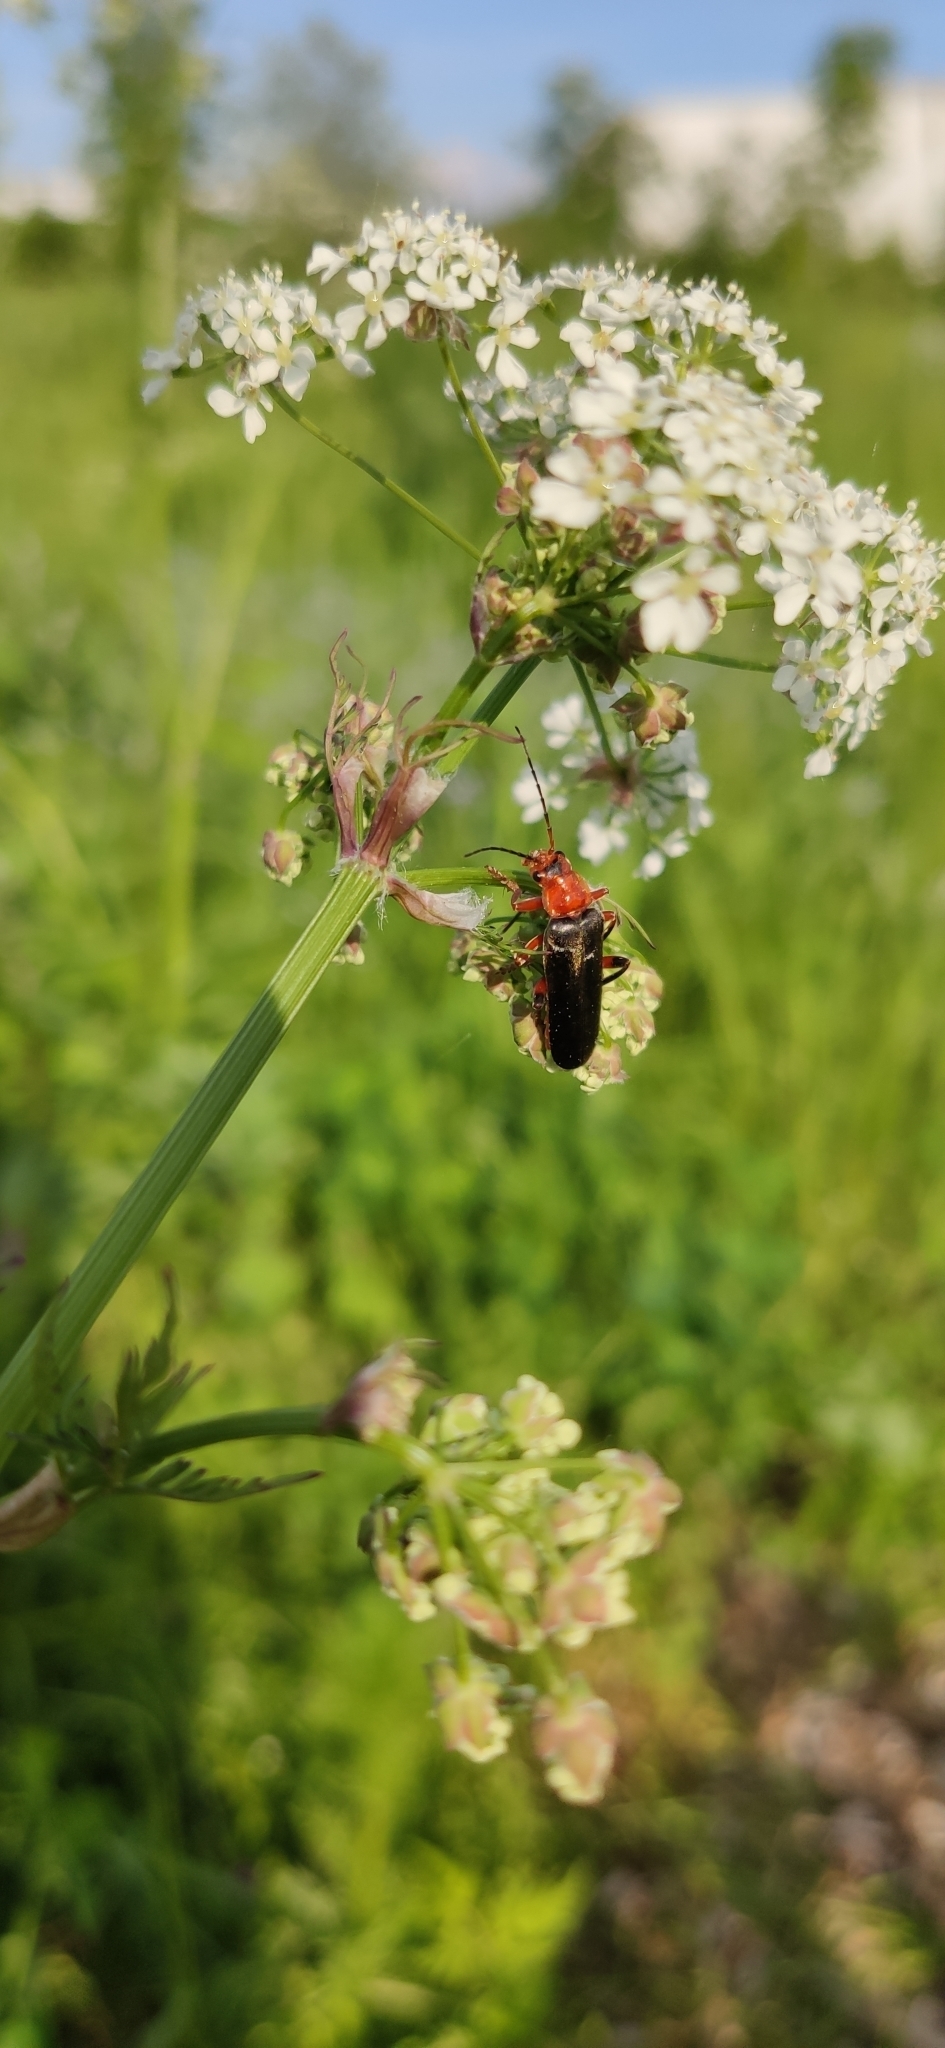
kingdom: Animalia
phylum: Arthropoda
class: Insecta
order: Coleoptera
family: Cantharidae
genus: Cantharis
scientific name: Cantharis livida
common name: Livid soldier beetle
